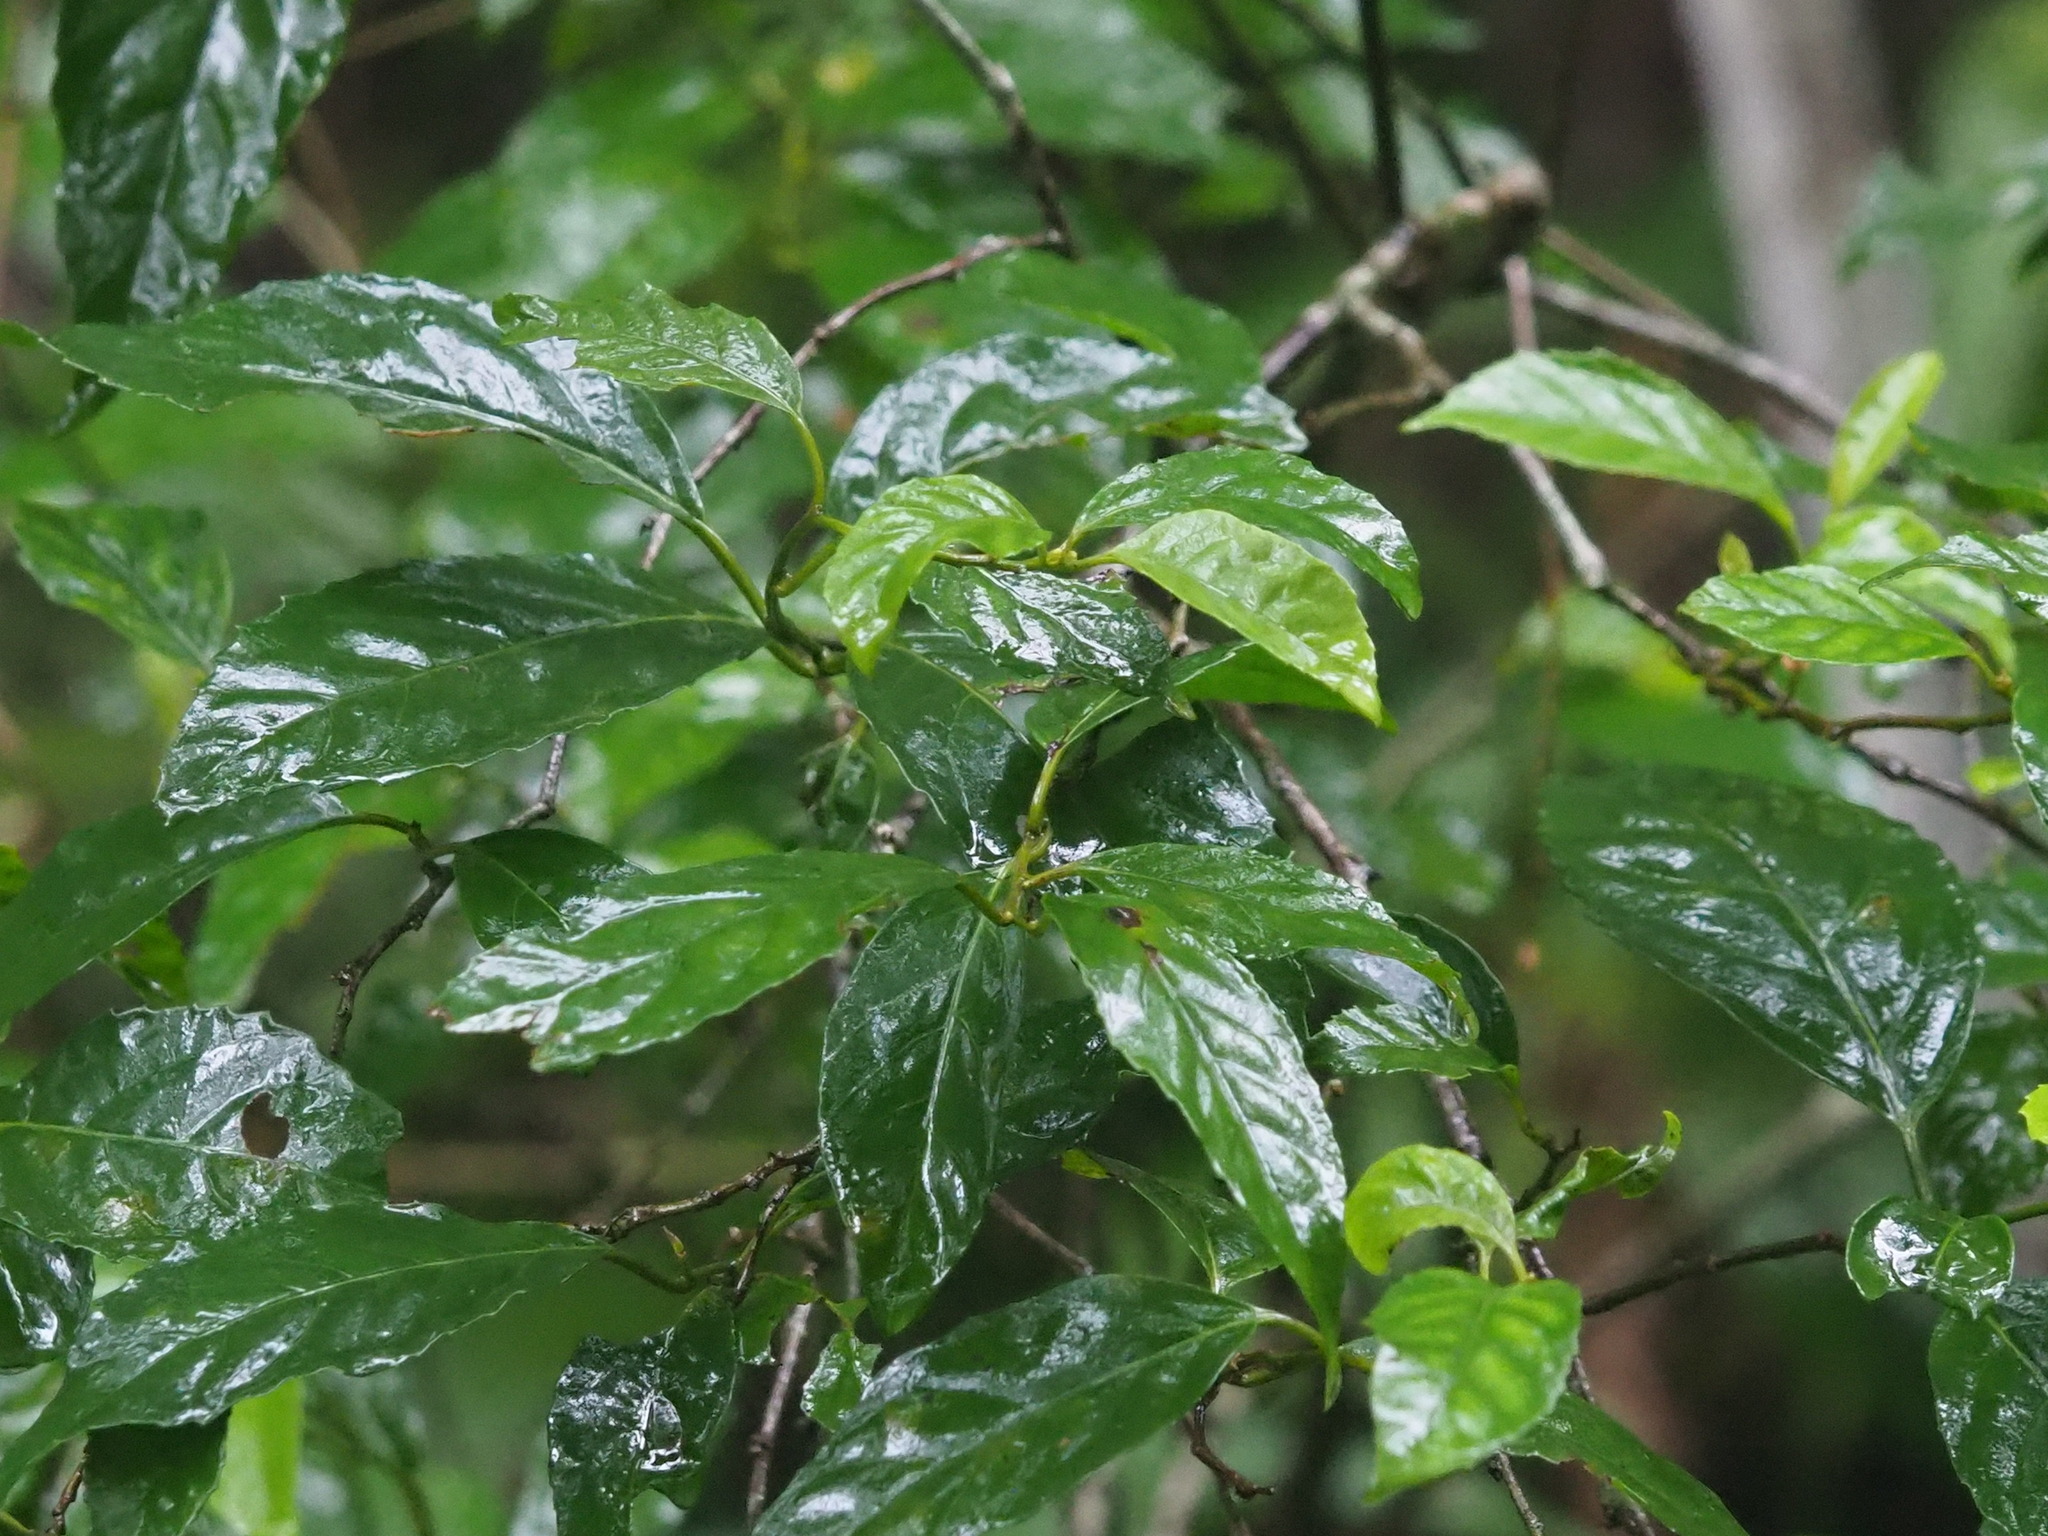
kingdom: Plantae
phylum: Tracheophyta
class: Magnoliopsida
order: Ericales
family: Primulaceae
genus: Maesa
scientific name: Maesa perlaria
